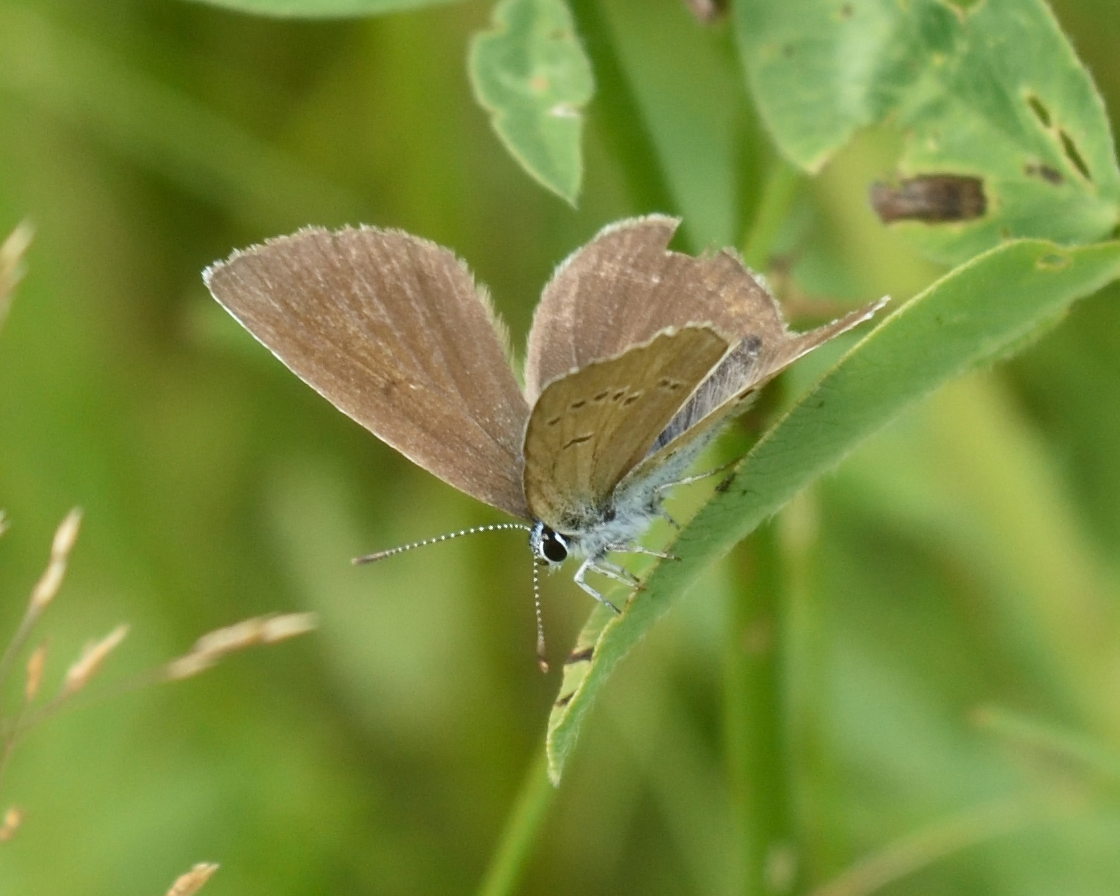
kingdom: Animalia
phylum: Arthropoda
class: Insecta
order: Lepidoptera
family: Lycaenidae
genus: Cyaniris
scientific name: Cyaniris semiargus
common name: Mazarine blue
